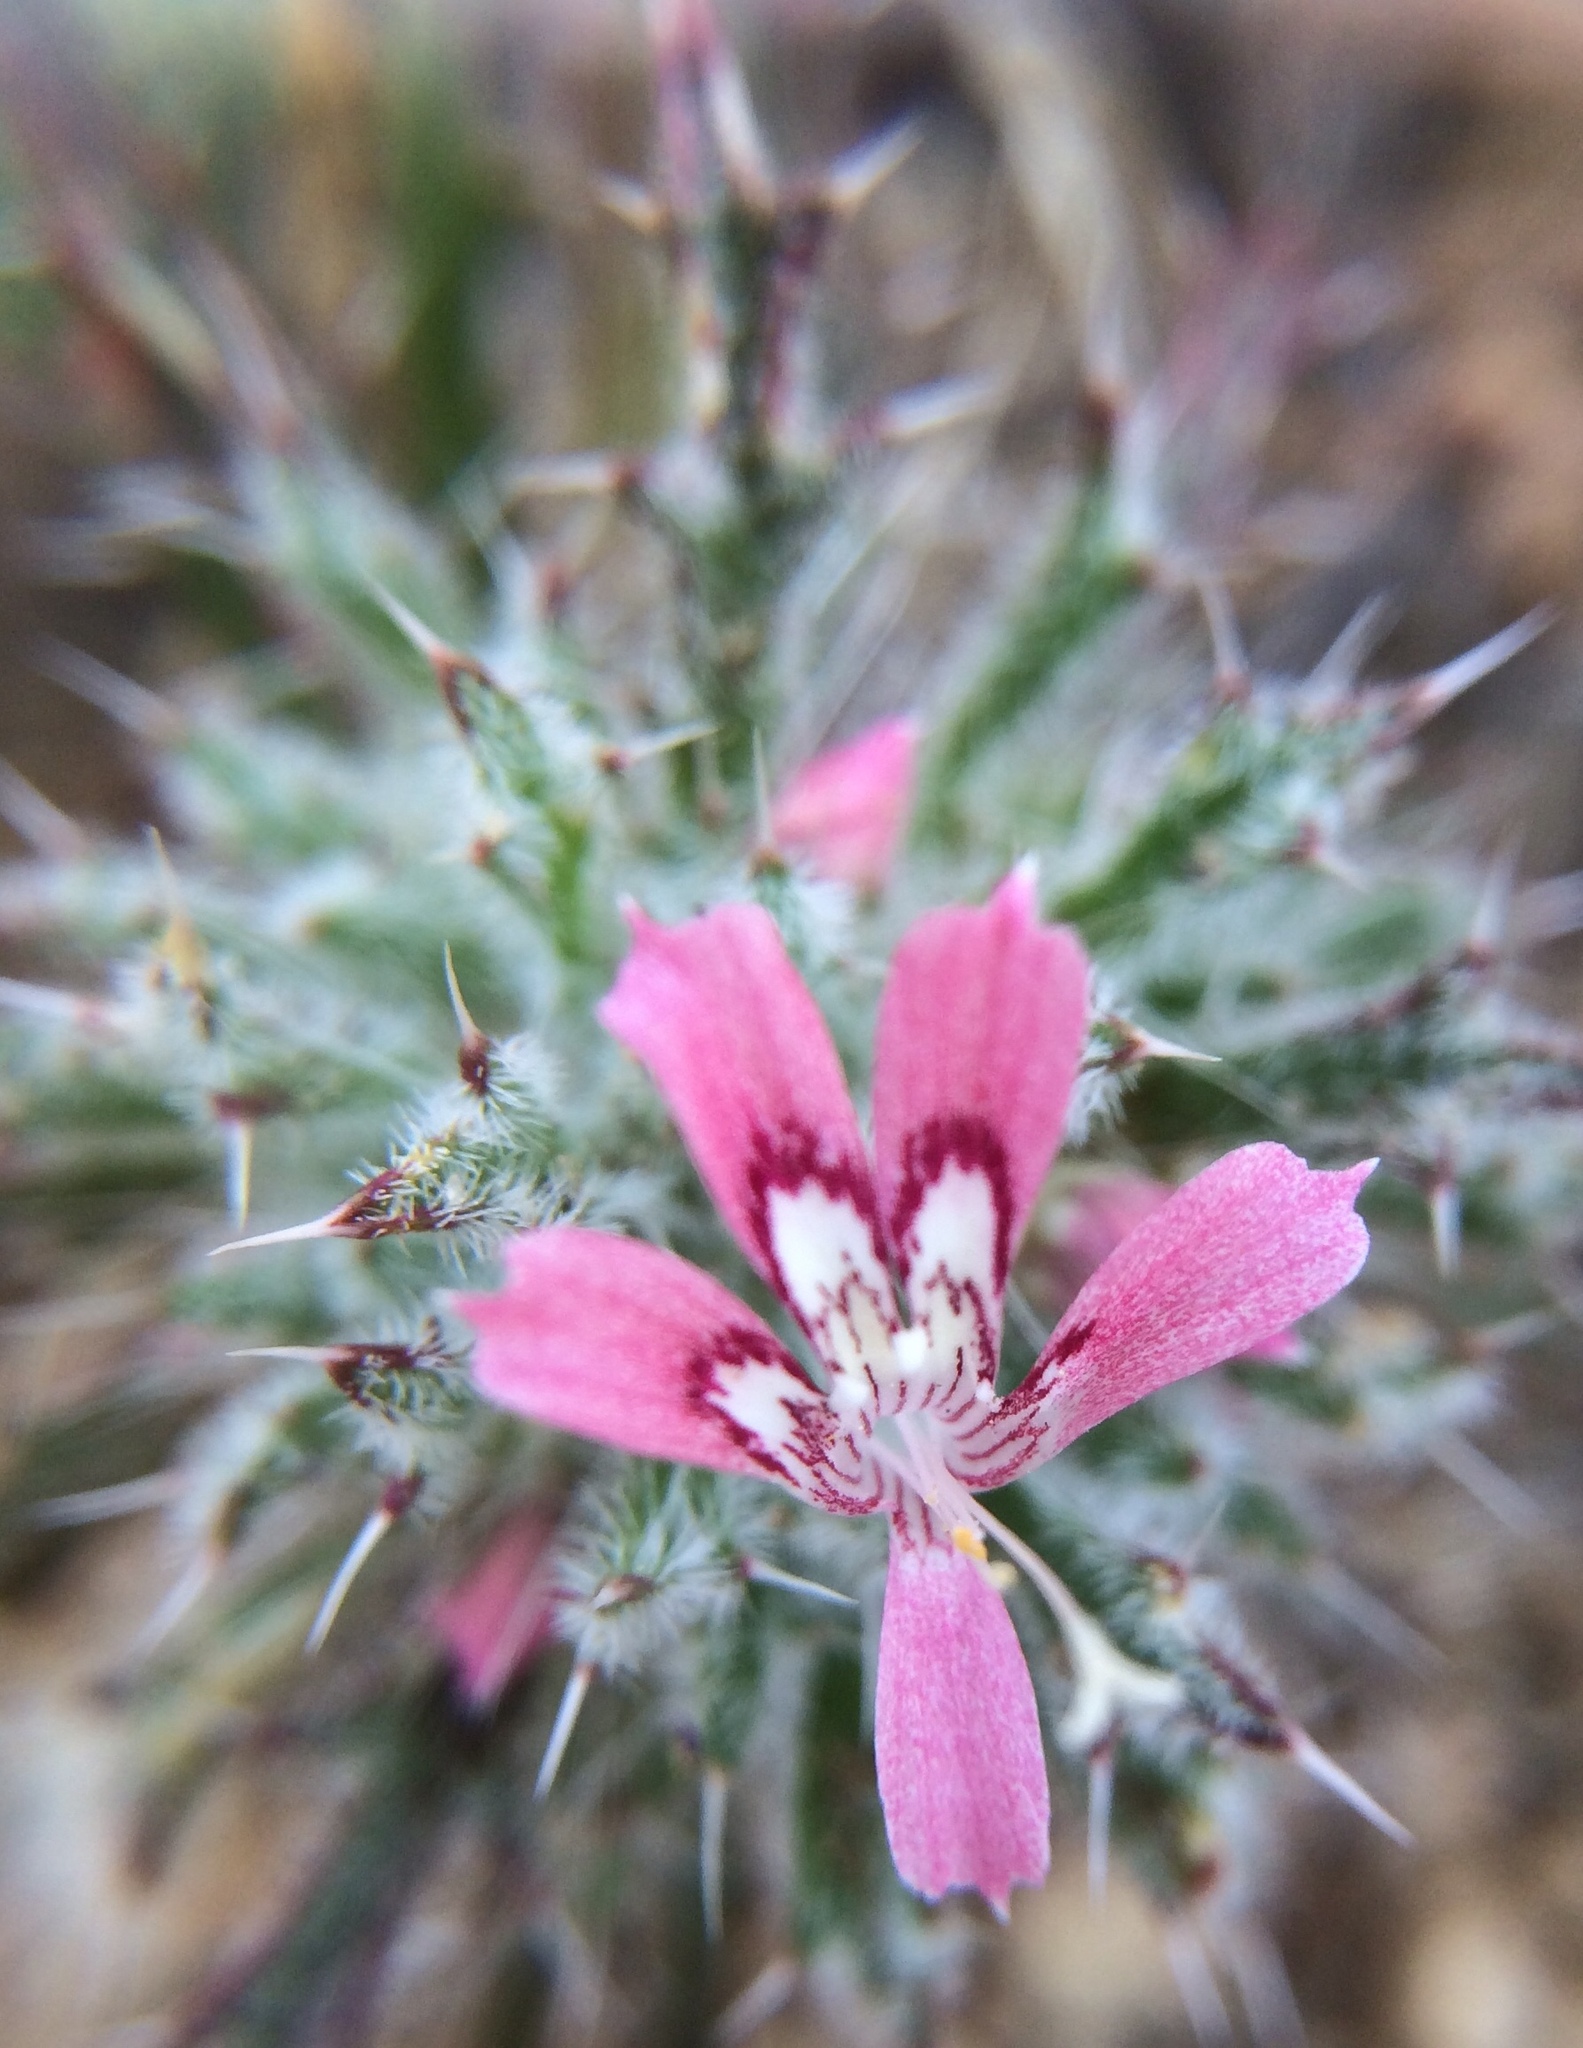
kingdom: Plantae
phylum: Tracheophyta
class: Magnoliopsida
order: Ericales
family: Polemoniaceae
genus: Loeseliastrum
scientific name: Loeseliastrum matthewsii
